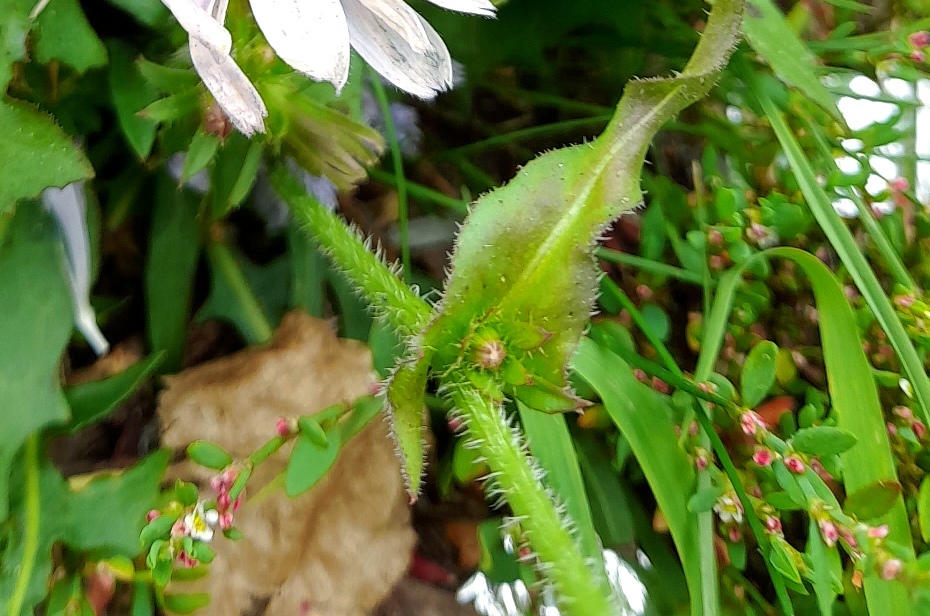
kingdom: Plantae
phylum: Tracheophyta
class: Magnoliopsida
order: Asterales
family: Asteraceae
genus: Cichorium
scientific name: Cichorium intybus
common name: Chicory
